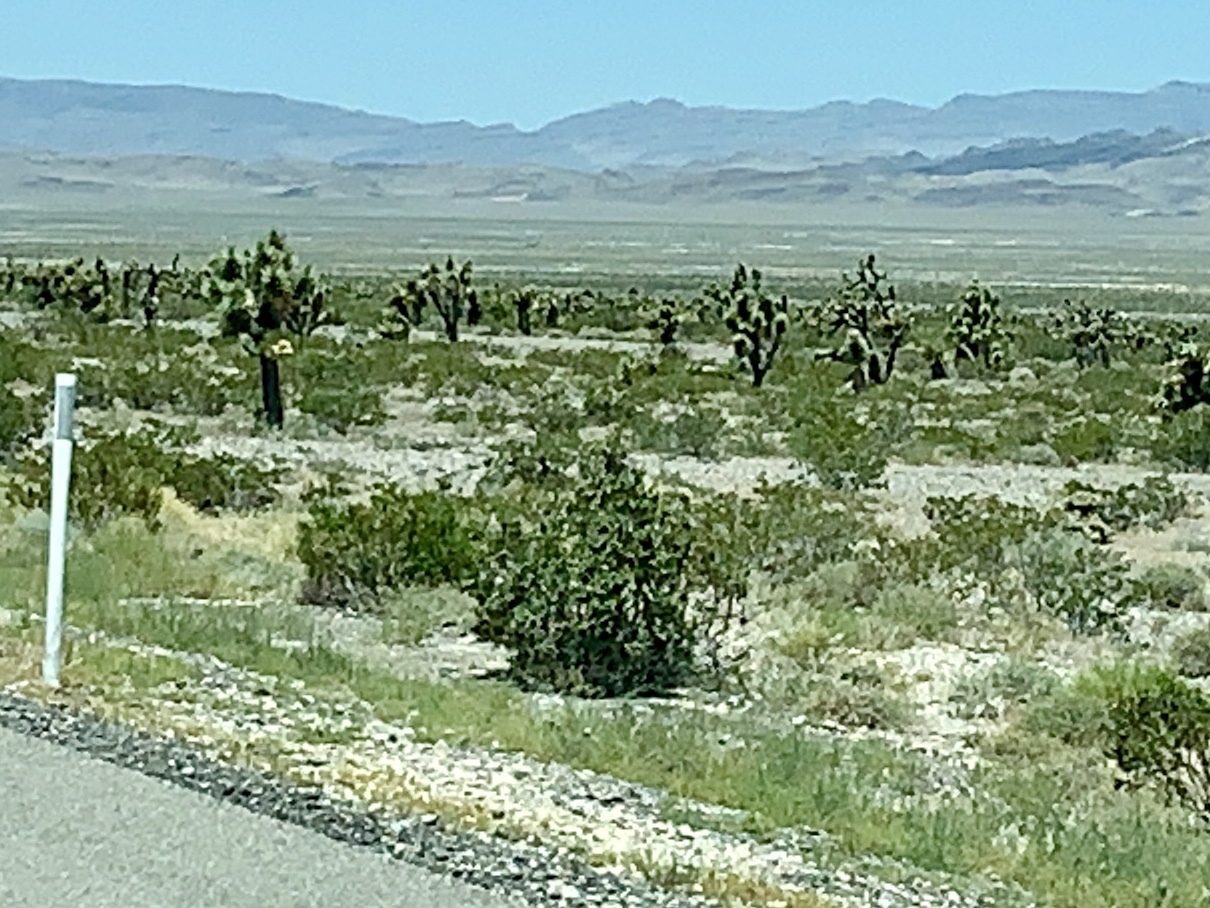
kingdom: Plantae
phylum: Tracheophyta
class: Magnoliopsida
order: Zygophyllales
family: Zygophyllaceae
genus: Larrea
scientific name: Larrea tridentata
